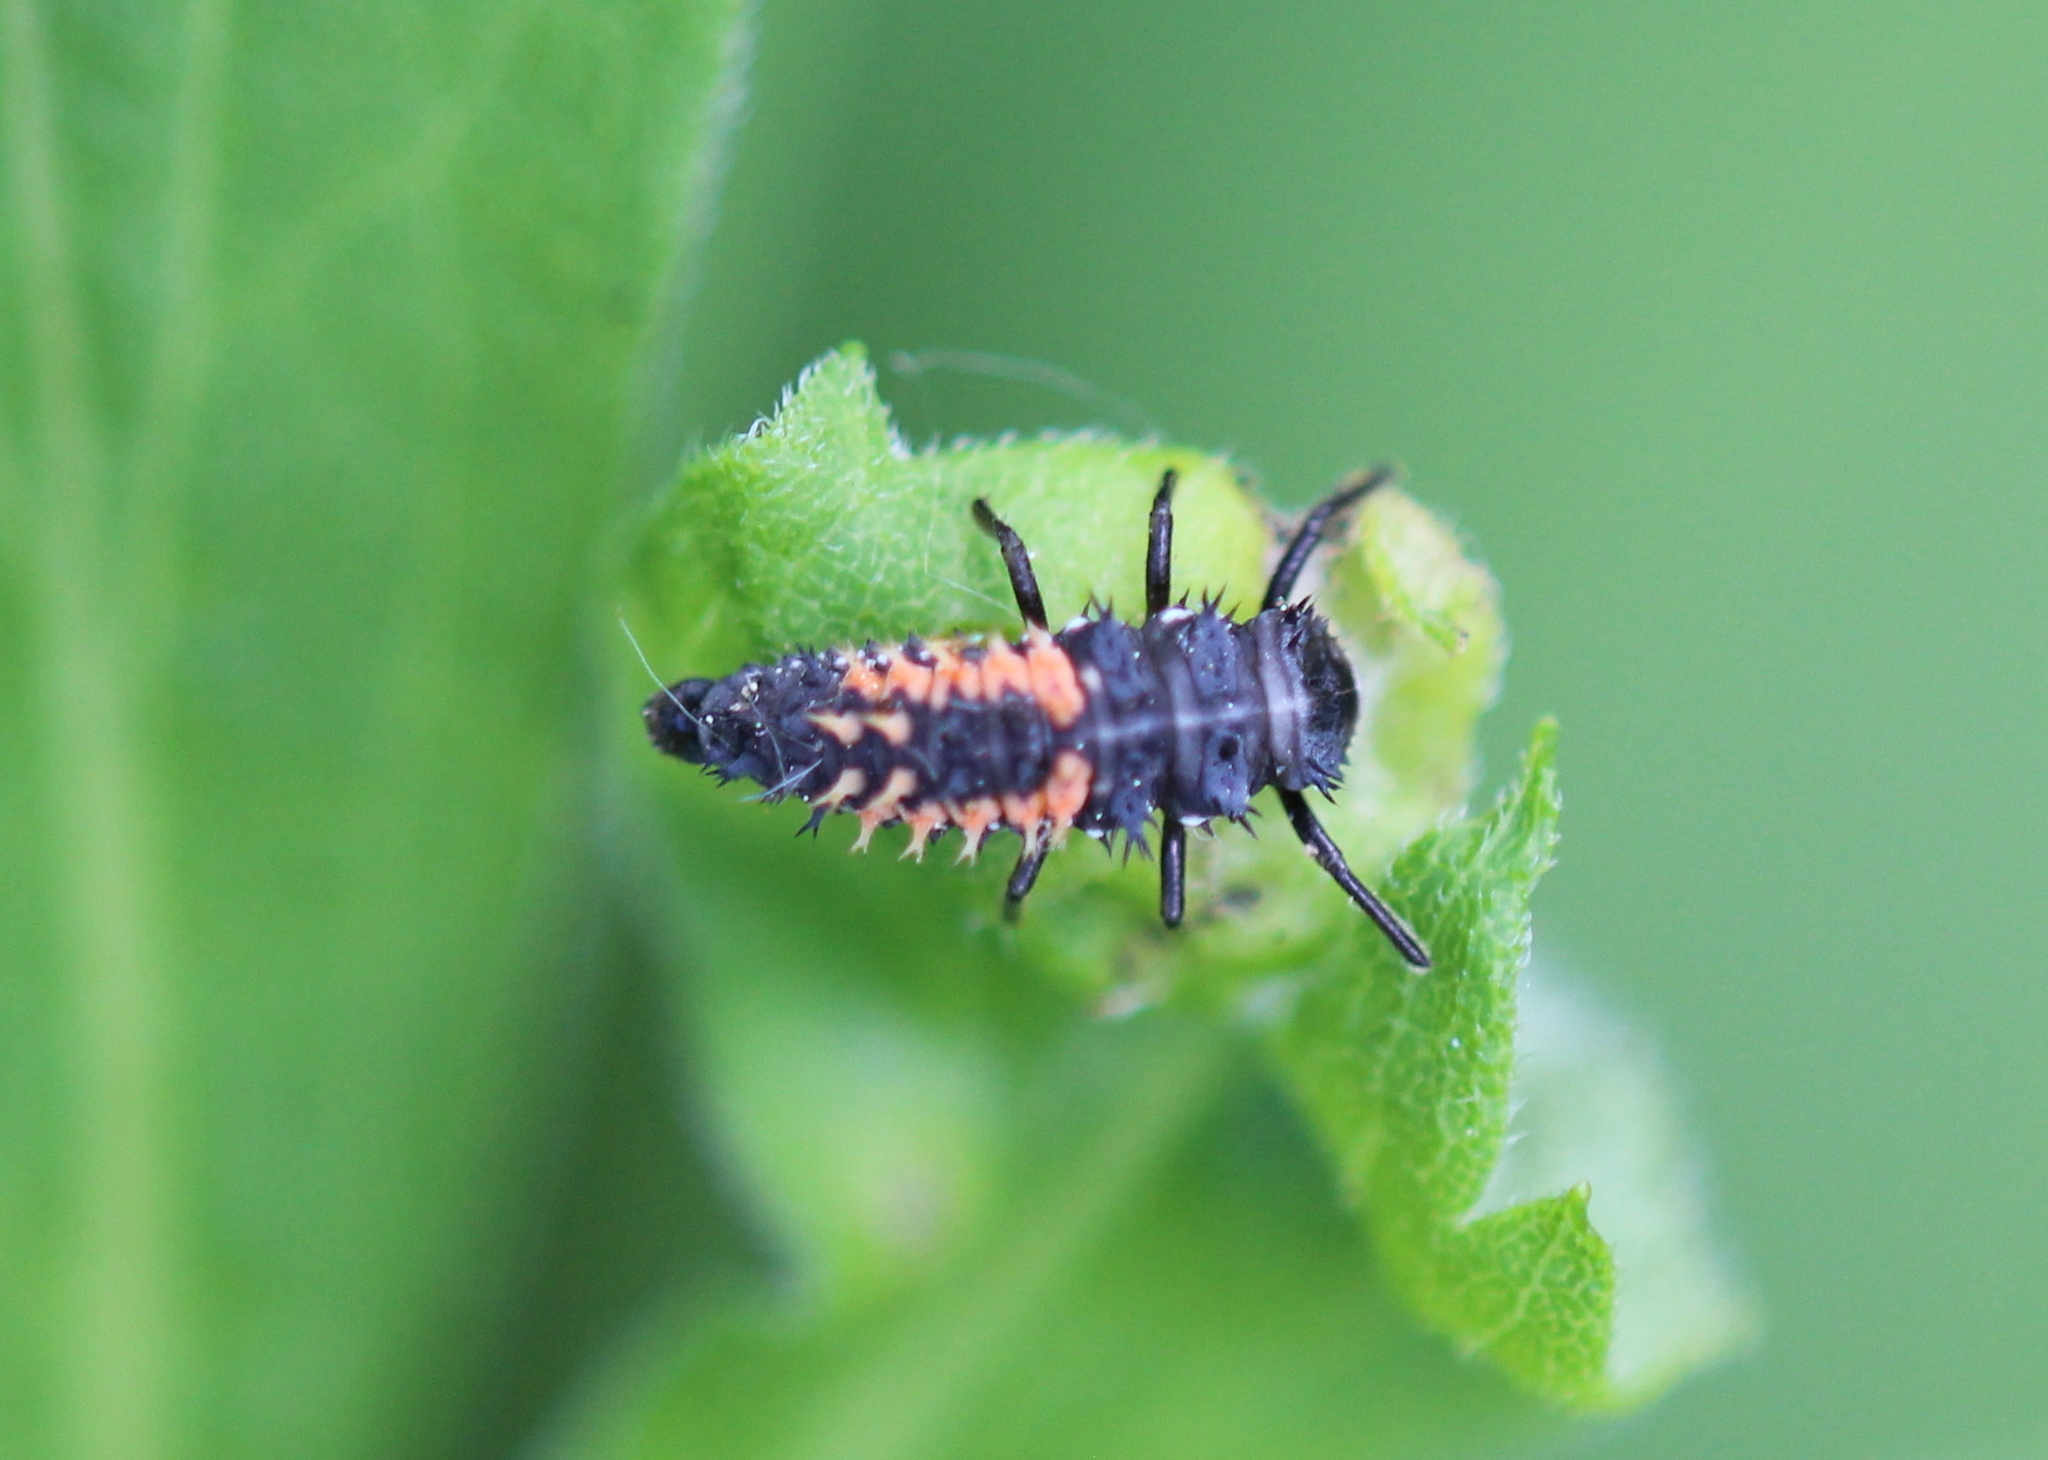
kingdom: Animalia
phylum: Arthropoda
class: Insecta
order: Coleoptera
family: Coccinellidae
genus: Harmonia
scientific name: Harmonia axyridis
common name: Harlequin ladybird
